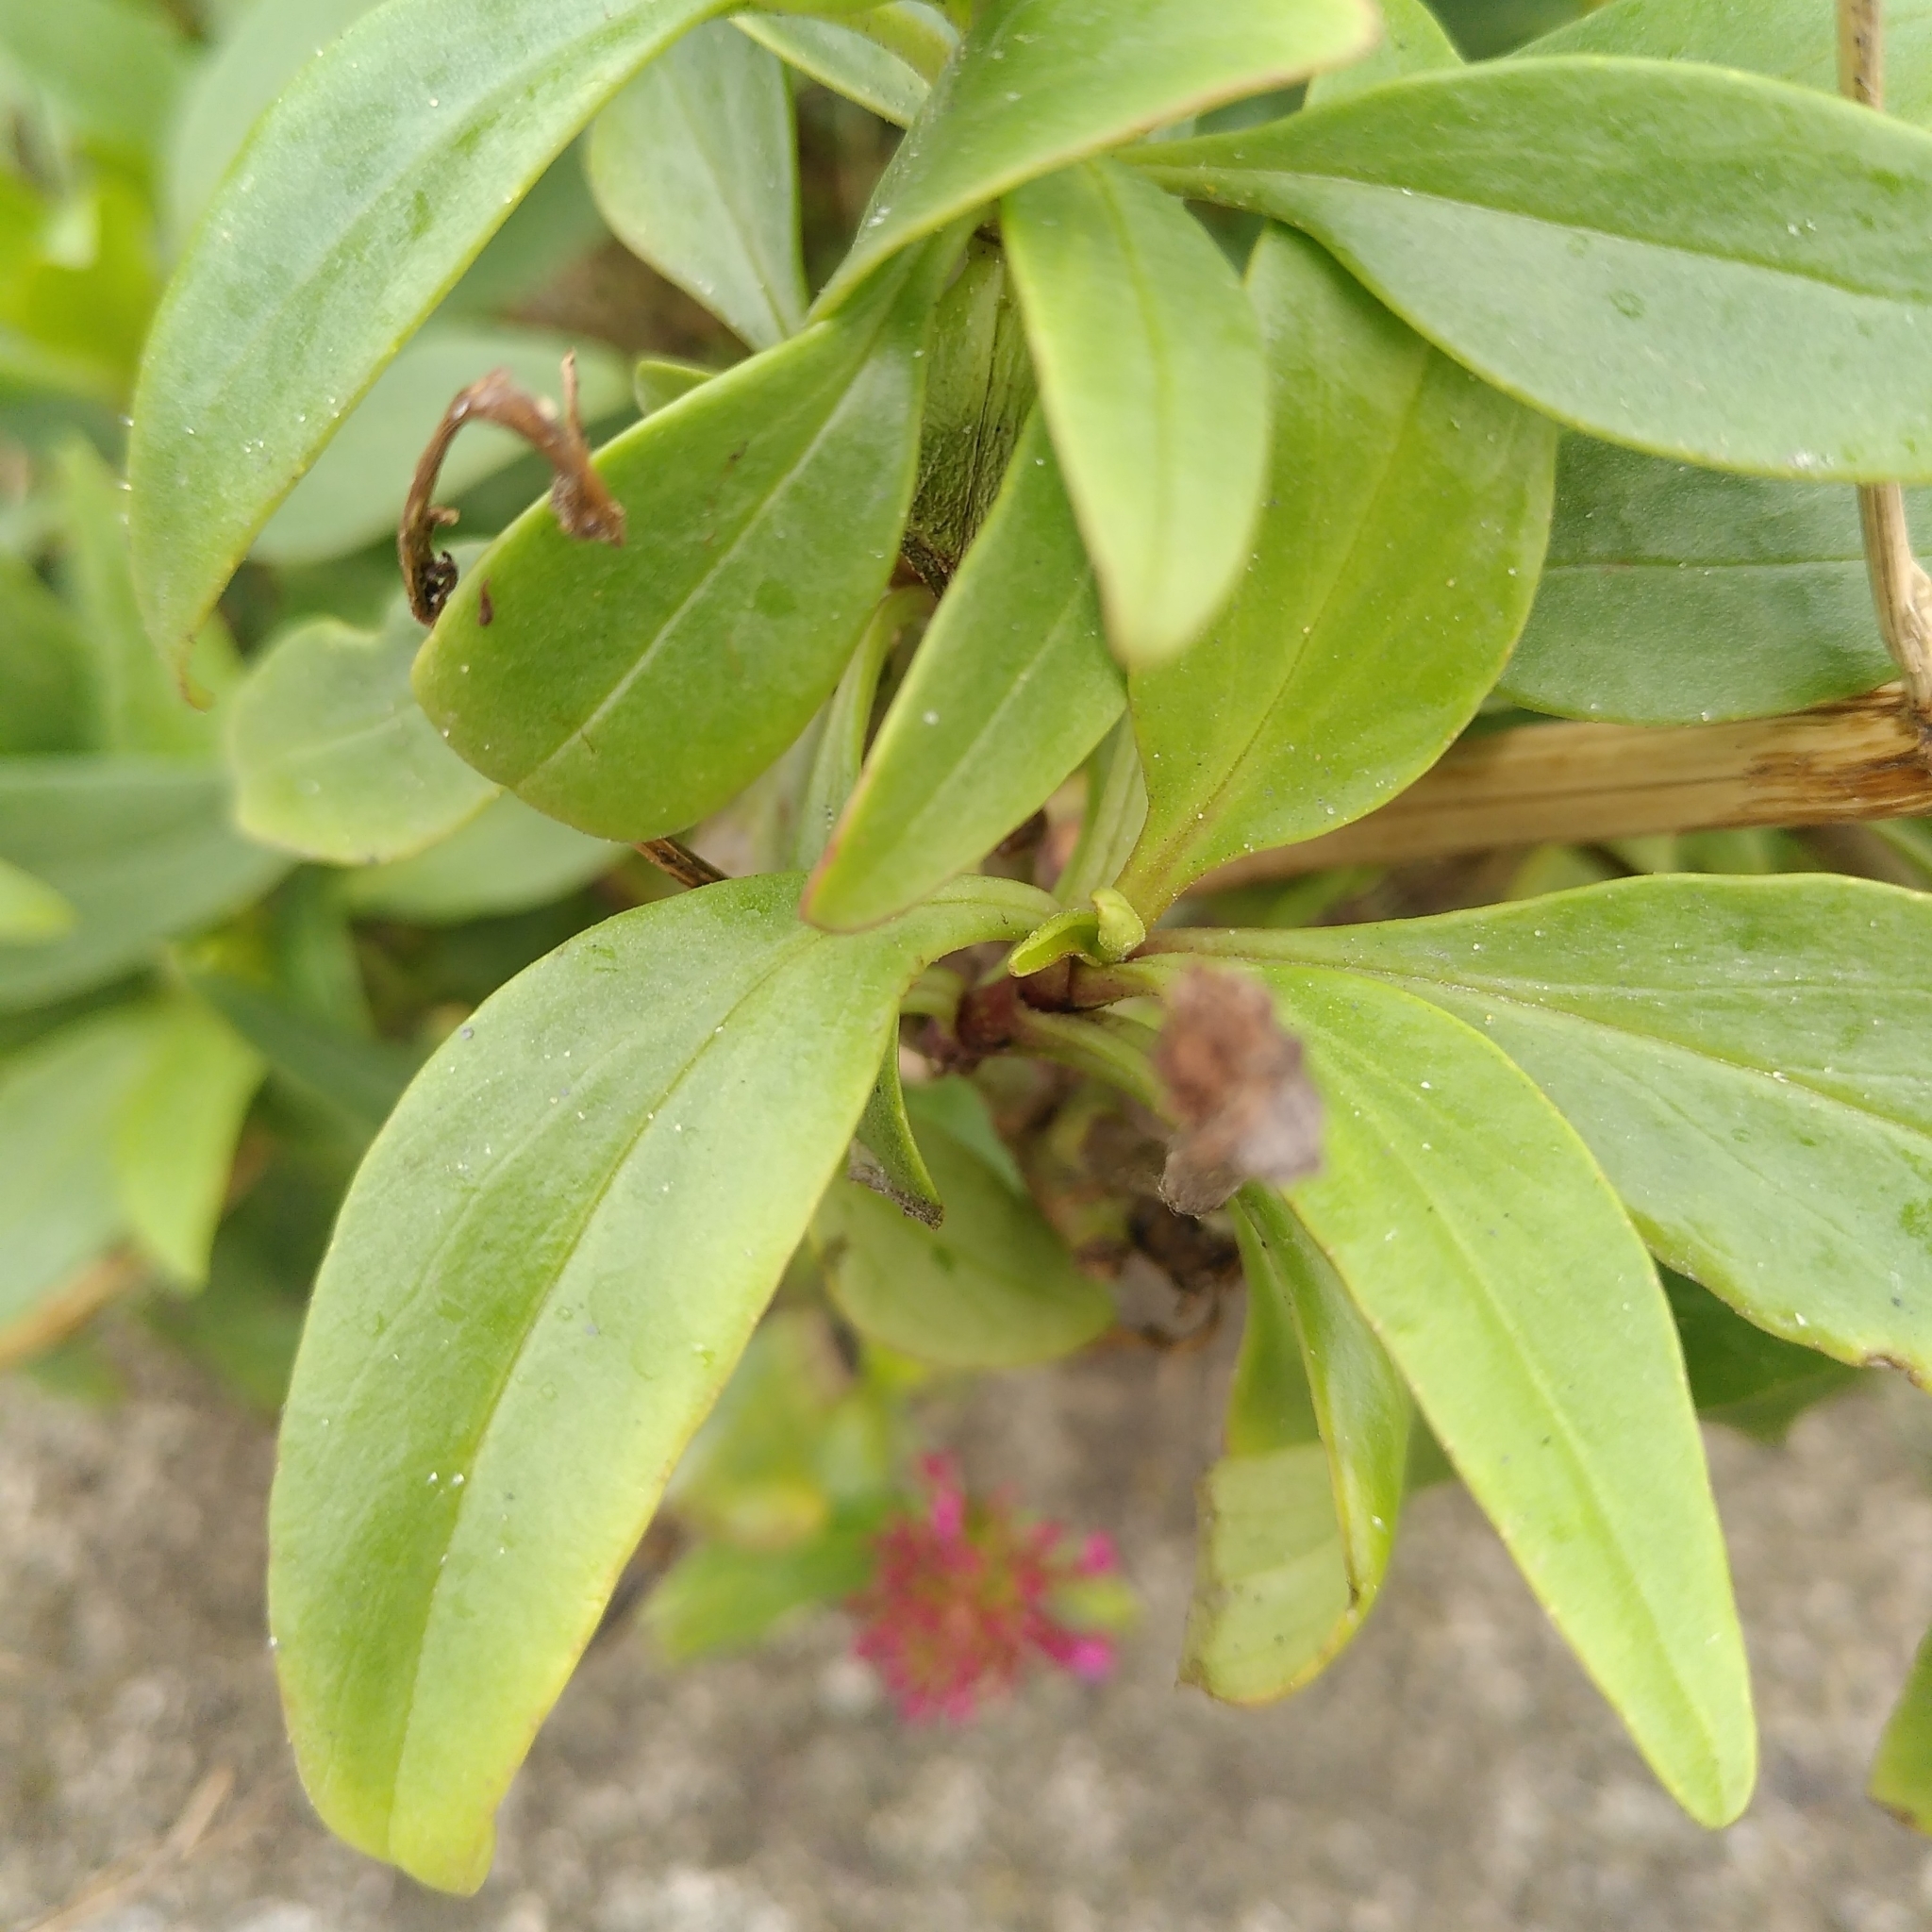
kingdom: Plantae
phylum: Tracheophyta
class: Magnoliopsida
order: Dipsacales
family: Caprifoliaceae
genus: Centranthus
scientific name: Centranthus ruber
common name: Red valerian
